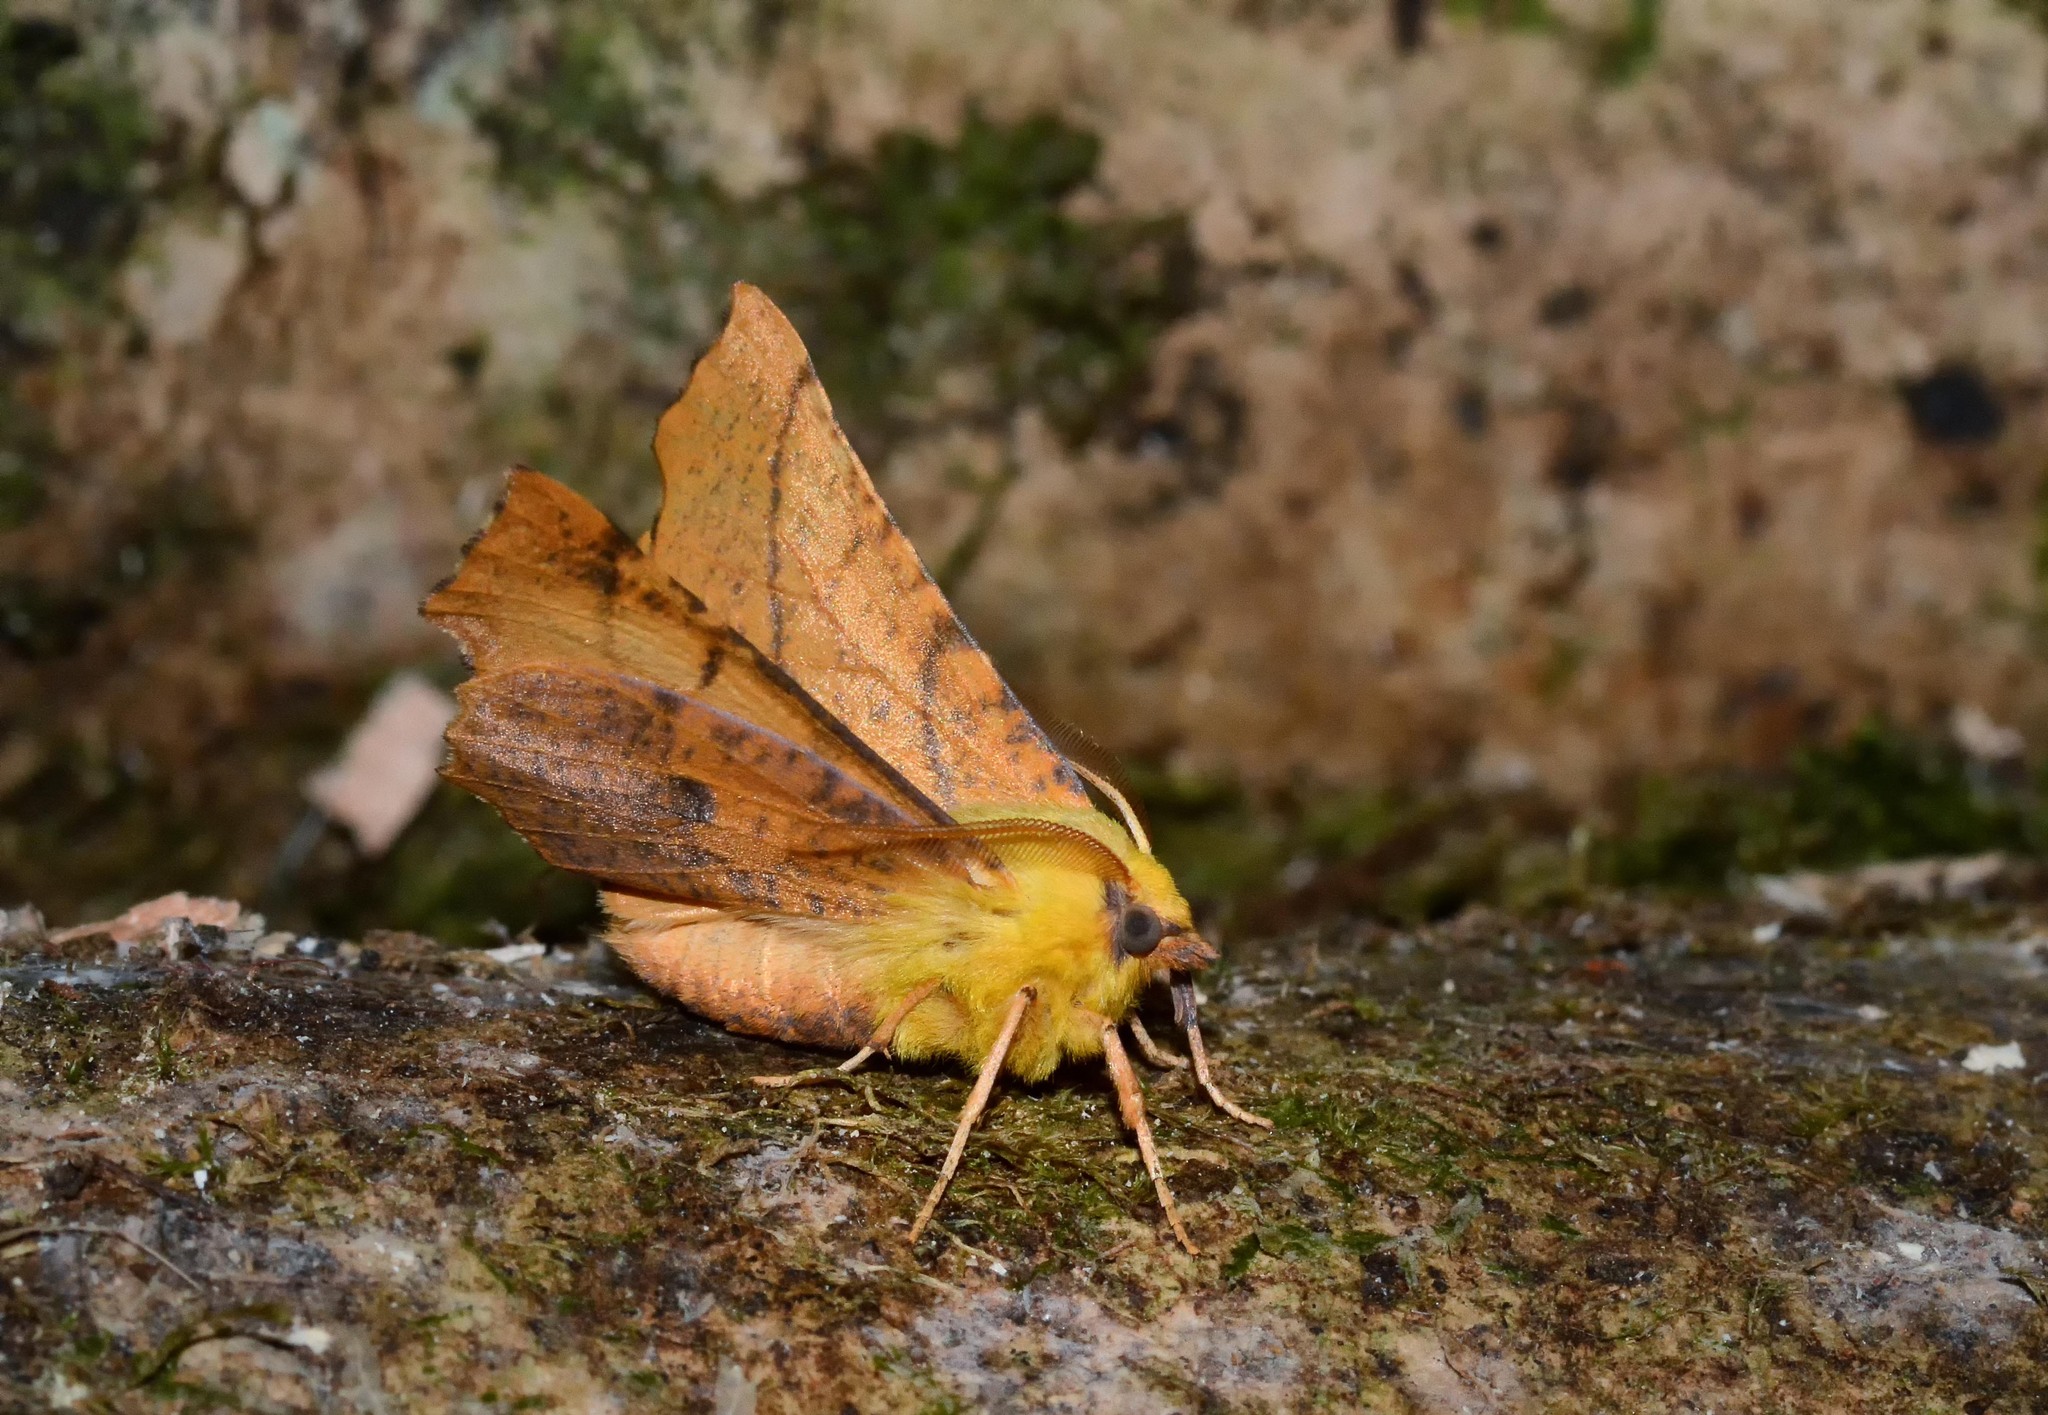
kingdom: Animalia
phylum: Arthropoda
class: Insecta
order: Lepidoptera
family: Geometridae
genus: Ennomos
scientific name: Ennomos alniaria
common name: Canary-shouldered thorn
